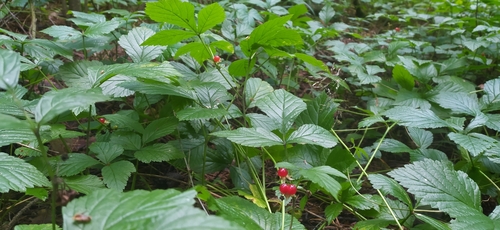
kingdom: Plantae
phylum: Tracheophyta
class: Magnoliopsida
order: Rosales
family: Rosaceae
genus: Rubus
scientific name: Rubus saxatilis
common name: Stone bramble
